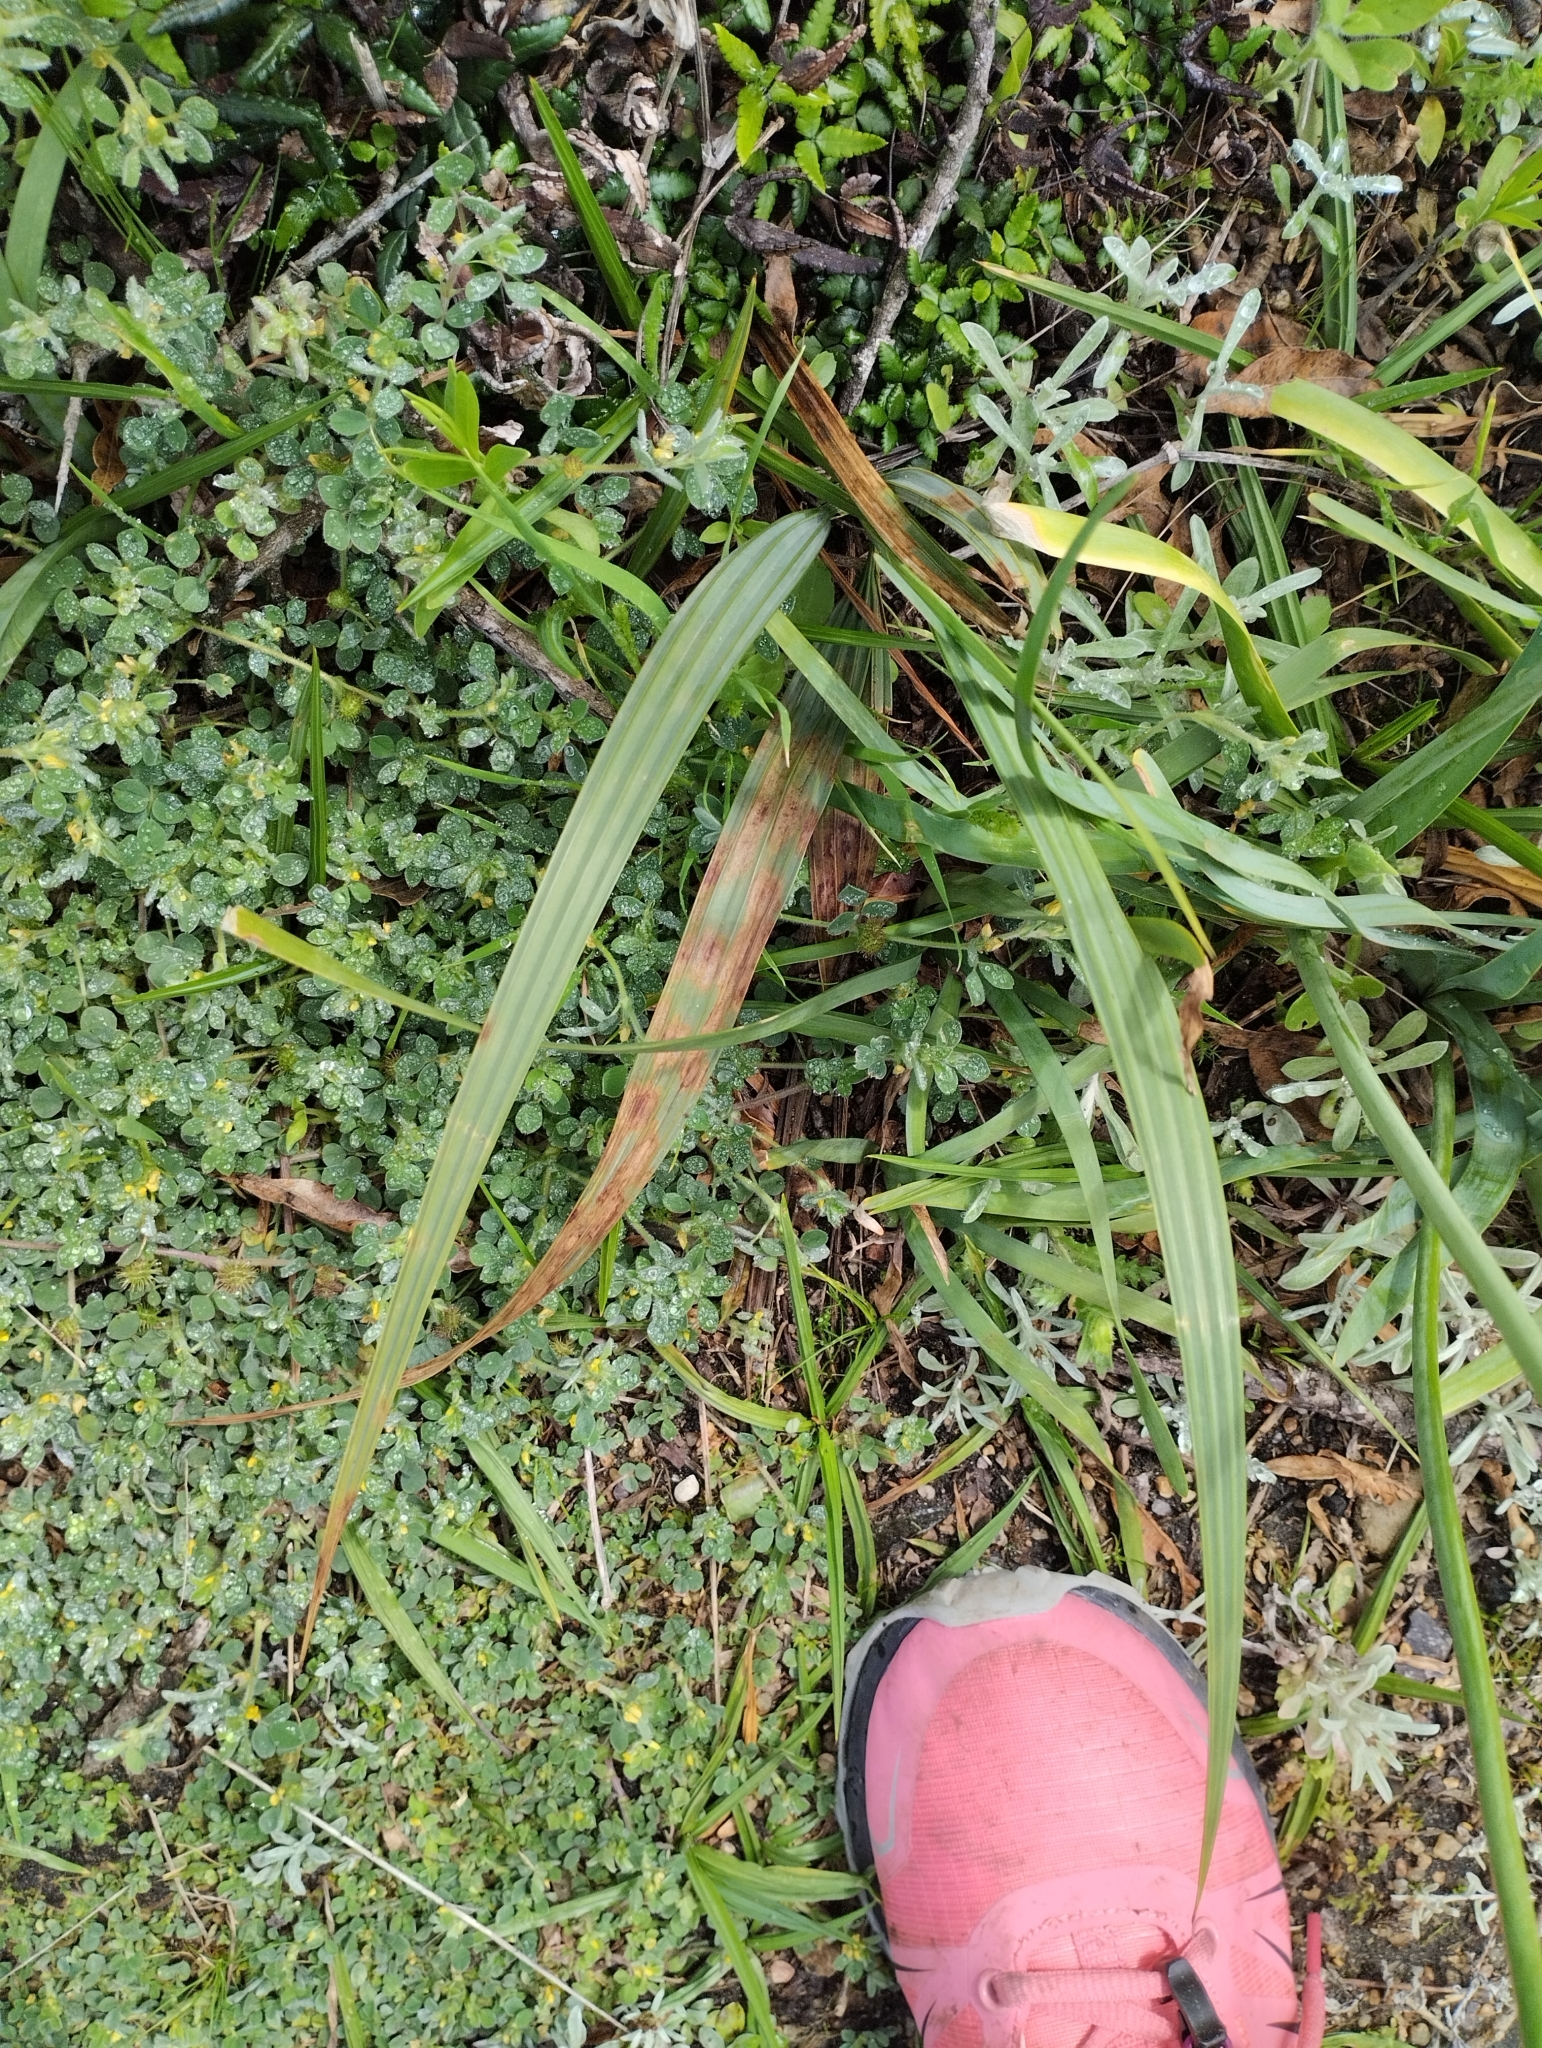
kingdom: Plantae
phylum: Tracheophyta
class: Liliopsida
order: Asparagales
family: Iridaceae
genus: Gelasine
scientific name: Gelasine elongata
